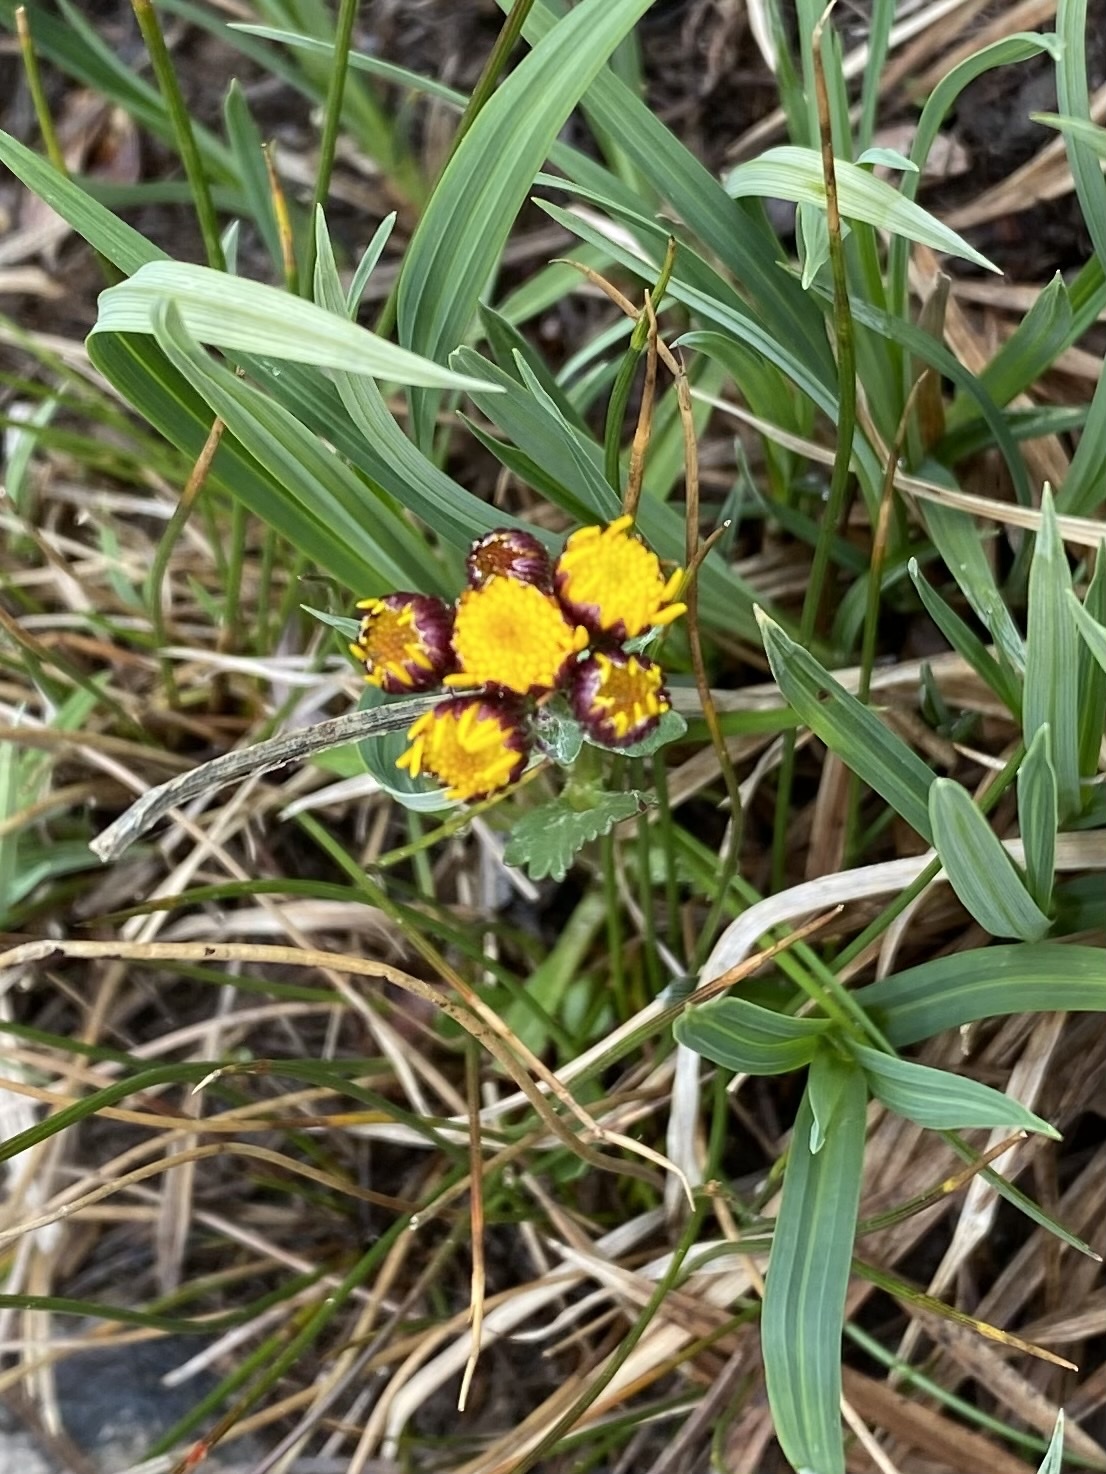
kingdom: Plantae
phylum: Tracheophyta
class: Magnoliopsida
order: Asterales
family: Asteraceae
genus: Packera
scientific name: Packera crocata
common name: Saffron ragwort
